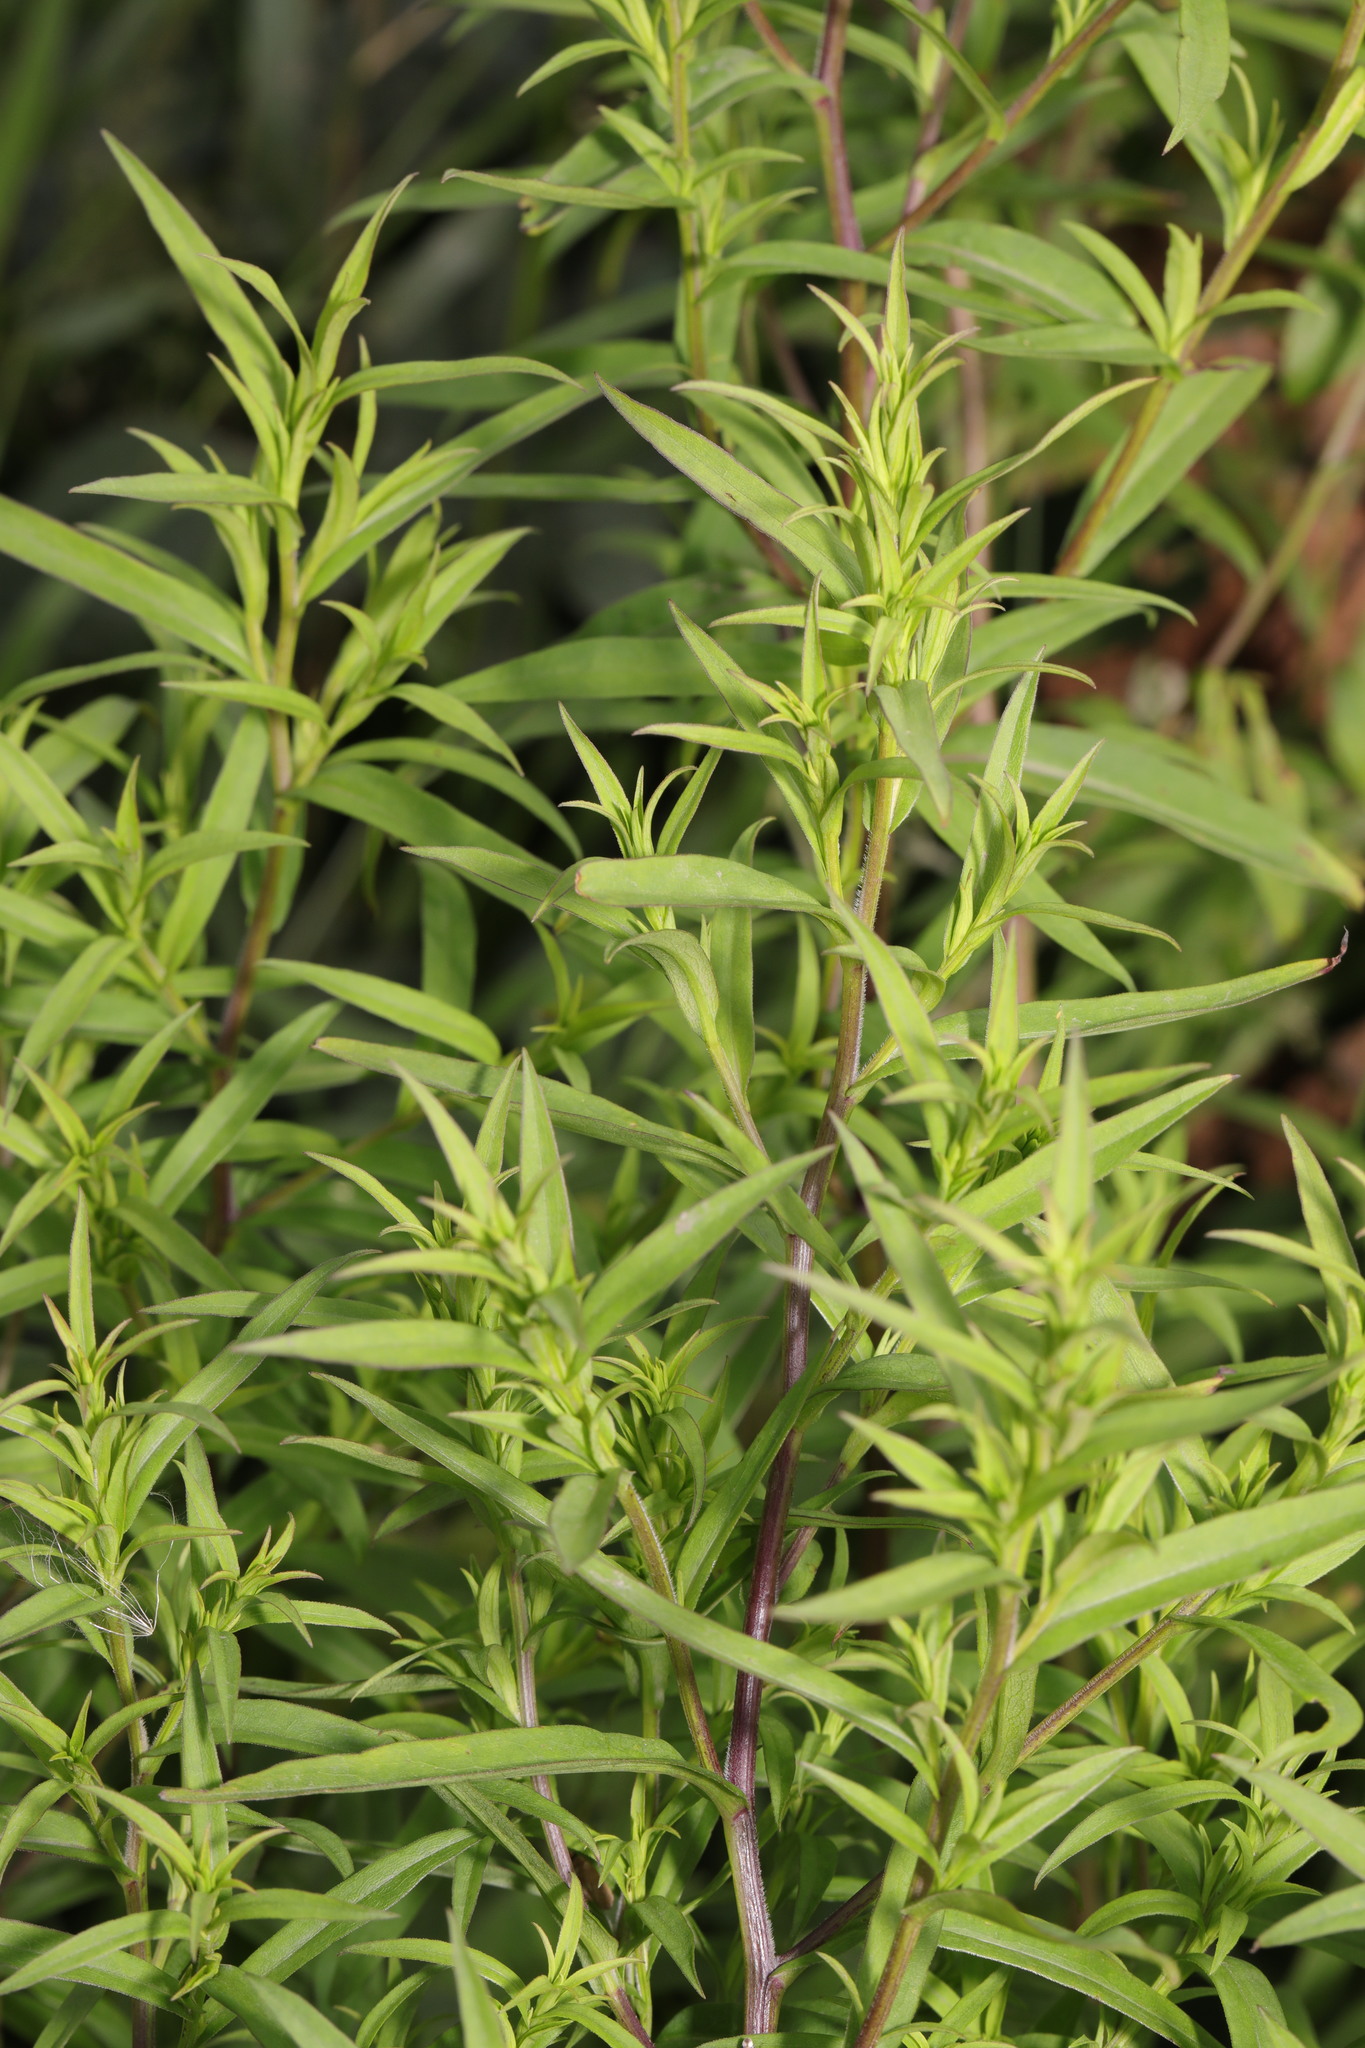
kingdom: Plantae
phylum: Tracheophyta
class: Magnoliopsida
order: Asterales
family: Asteraceae
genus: Symphyotrichum
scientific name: Symphyotrichum lanceolatum
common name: Panicled aster
